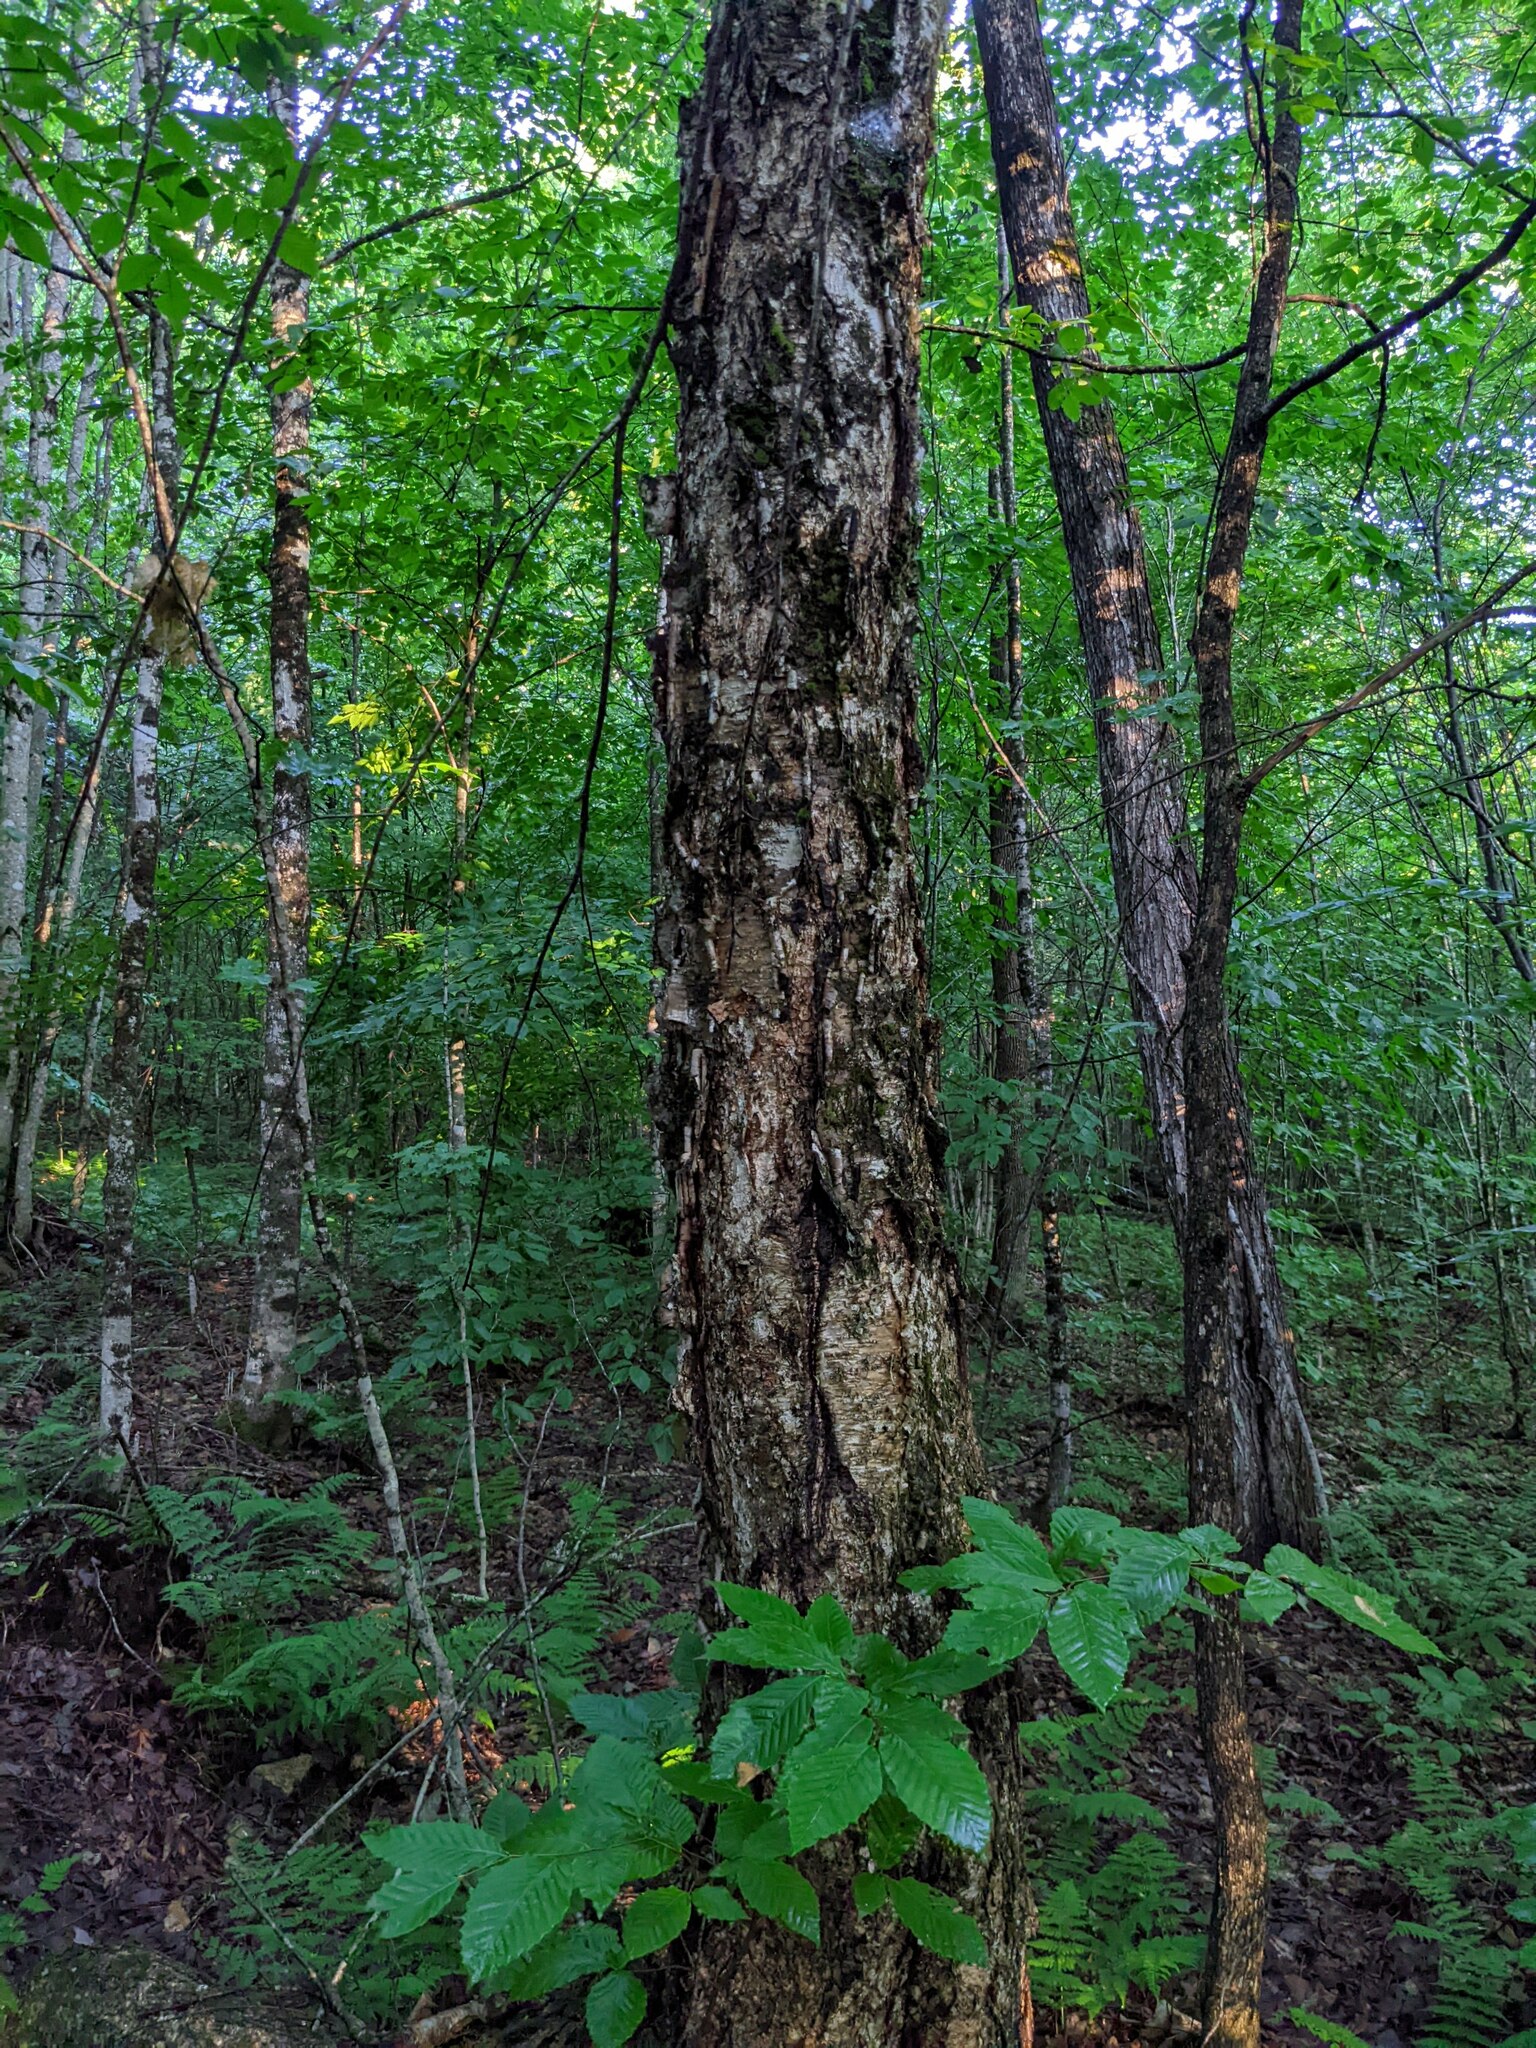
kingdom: Plantae
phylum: Tracheophyta
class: Magnoliopsida
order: Fagales
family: Betulaceae
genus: Betula
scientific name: Betula alleghaniensis
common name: Yellow birch
